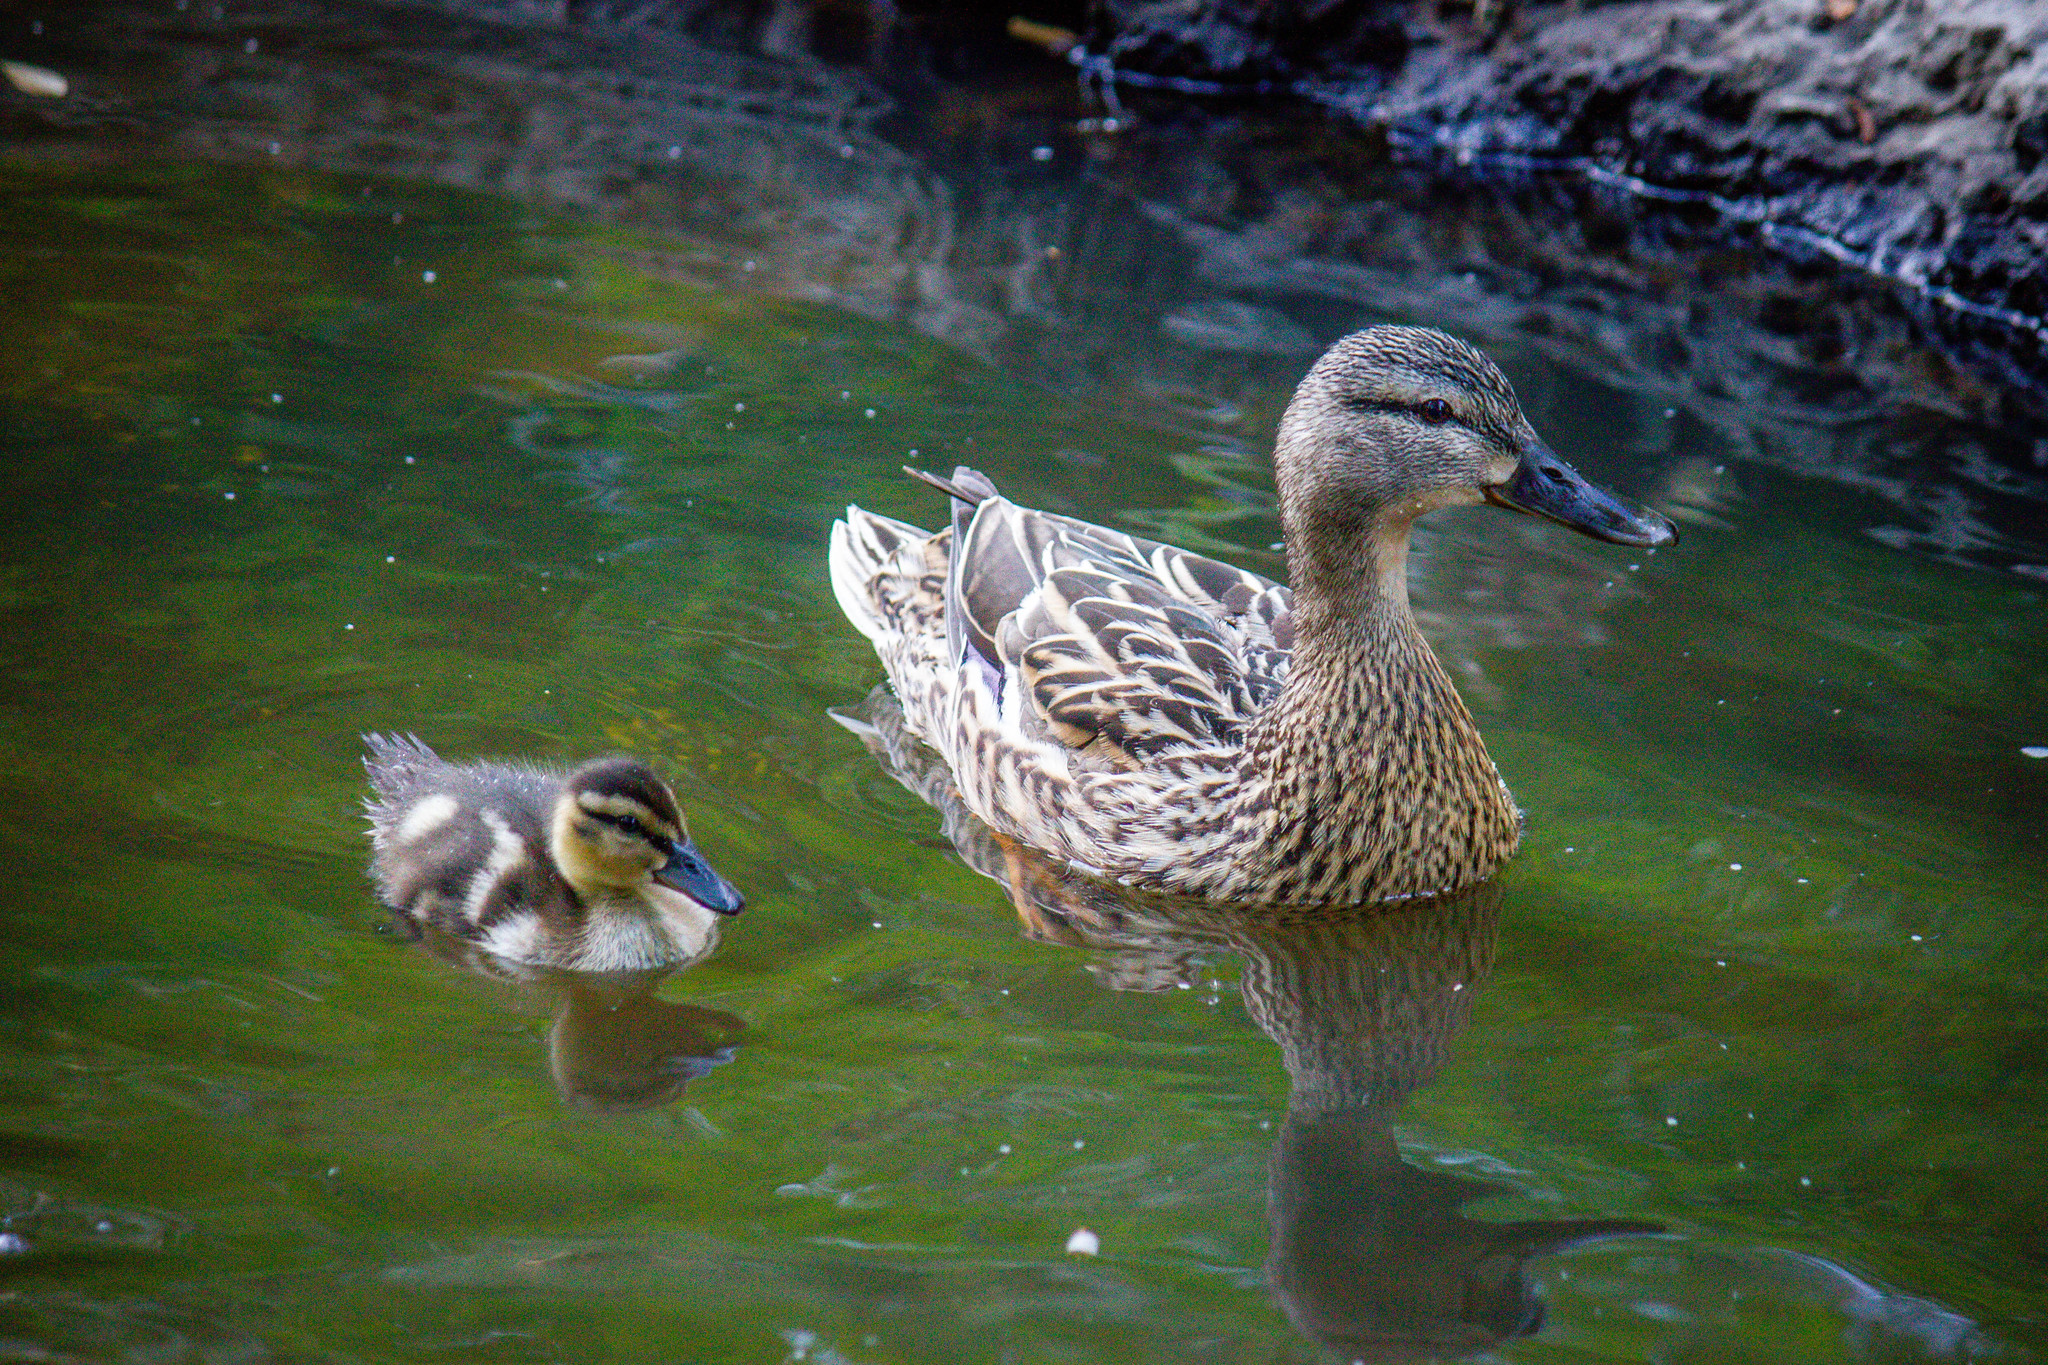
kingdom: Animalia
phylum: Chordata
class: Aves
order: Anseriformes
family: Anatidae
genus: Anas
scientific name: Anas platyrhynchos
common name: Mallard
